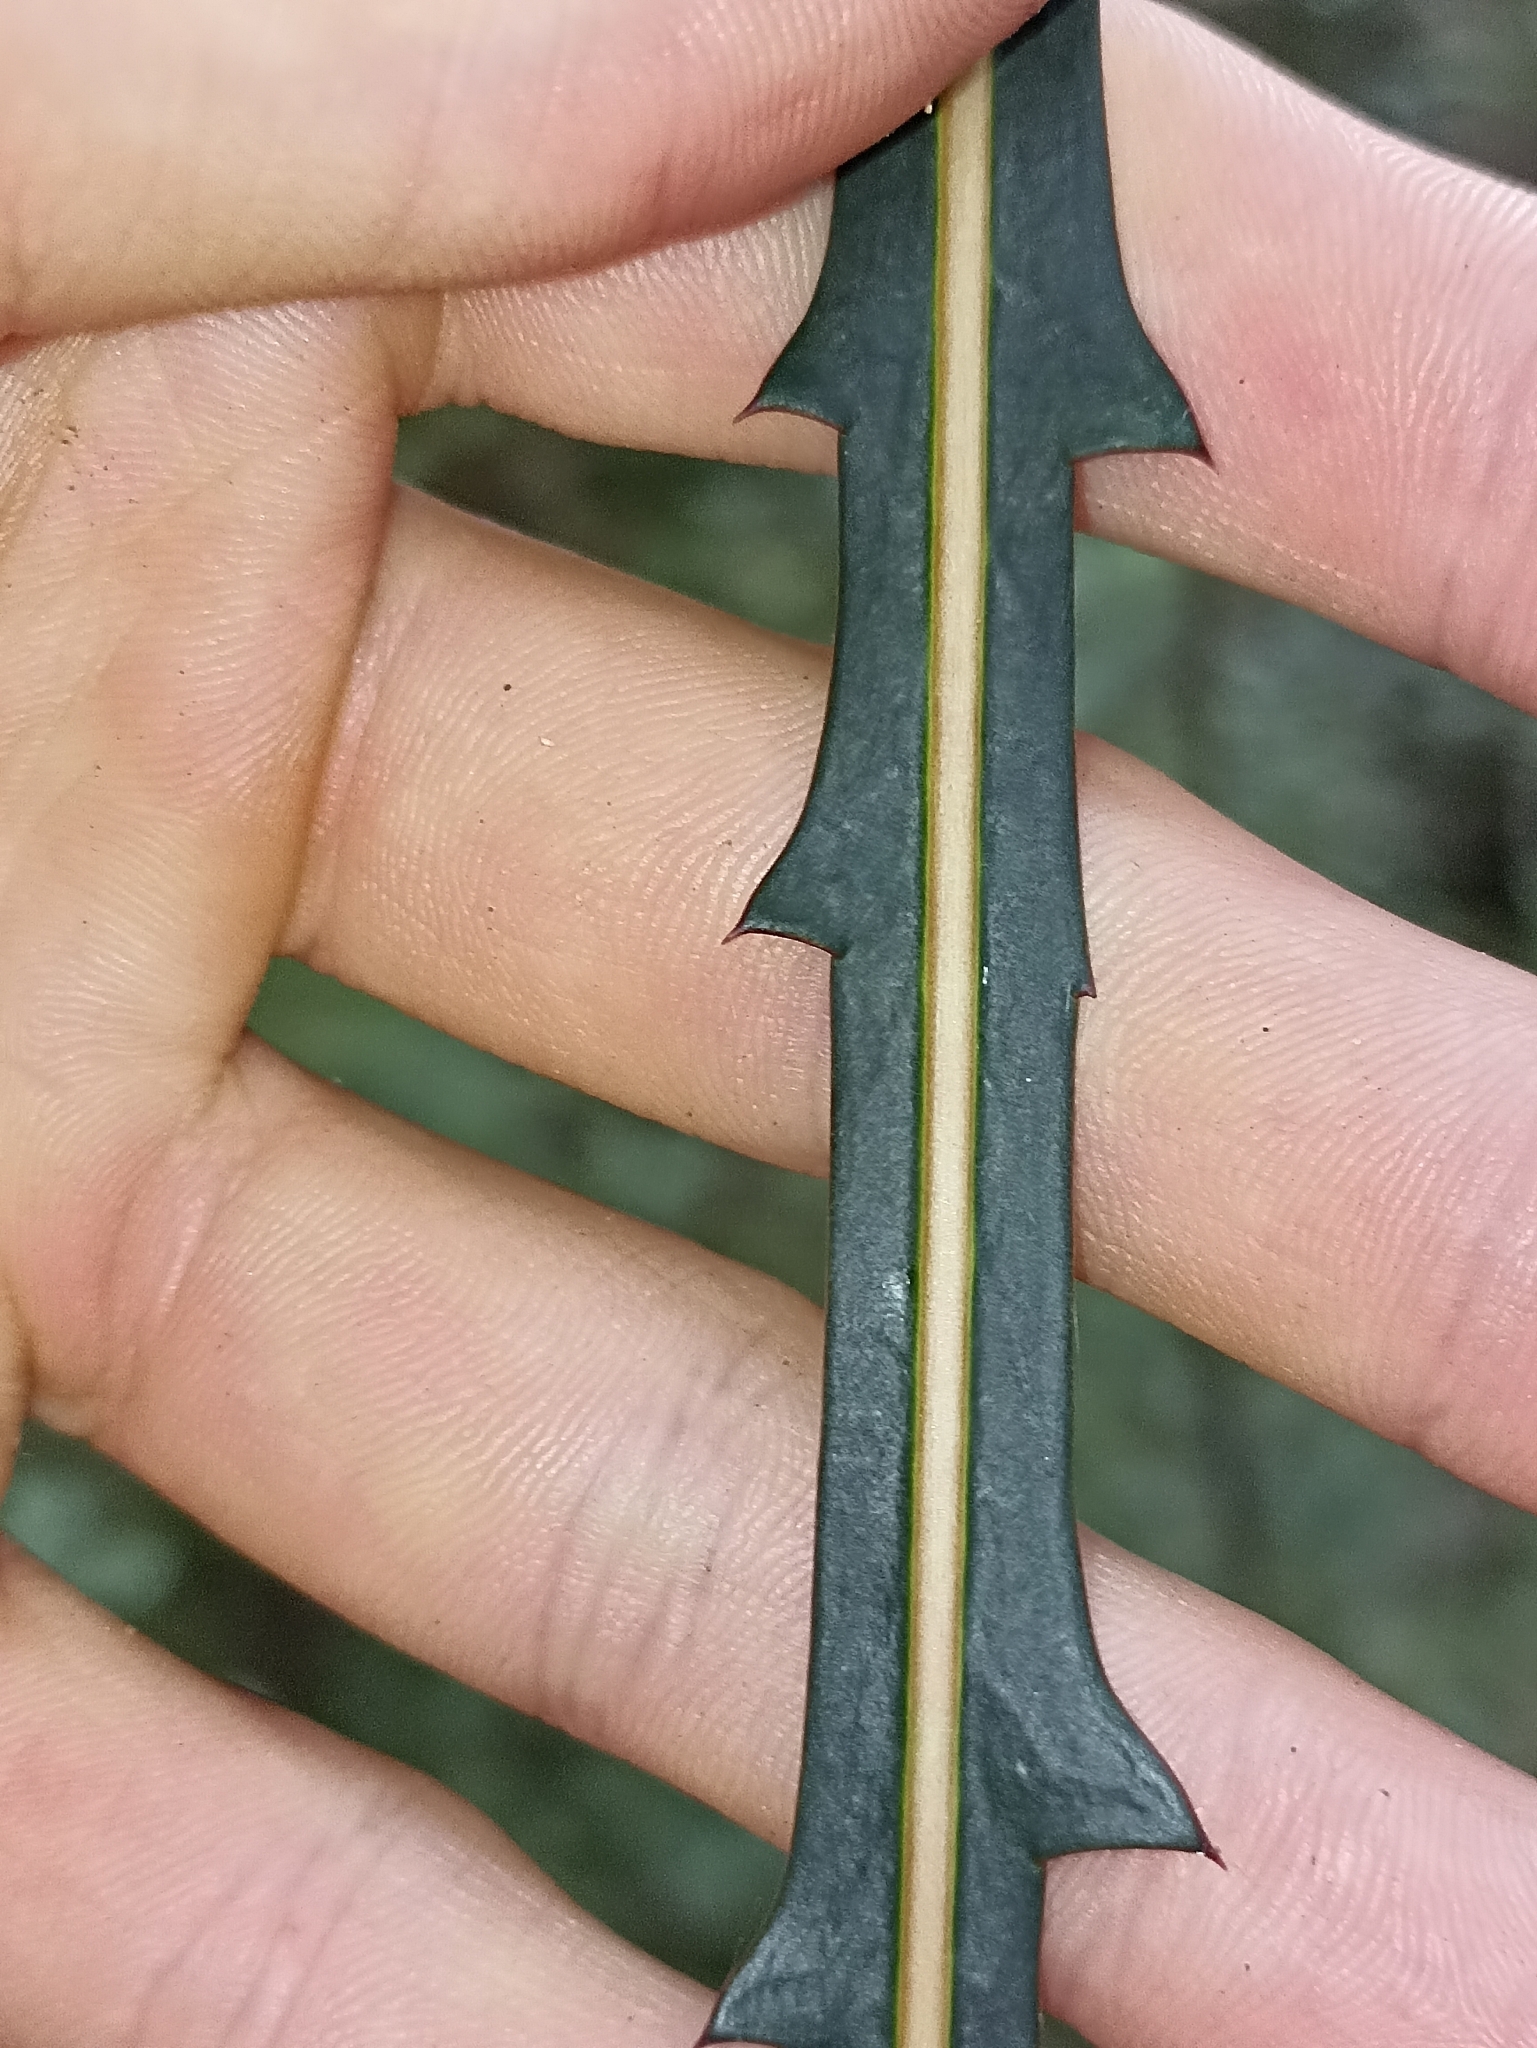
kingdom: Plantae
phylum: Tracheophyta
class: Magnoliopsida
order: Apiales
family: Araliaceae
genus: Pseudopanax
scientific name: Pseudopanax crassifolius
